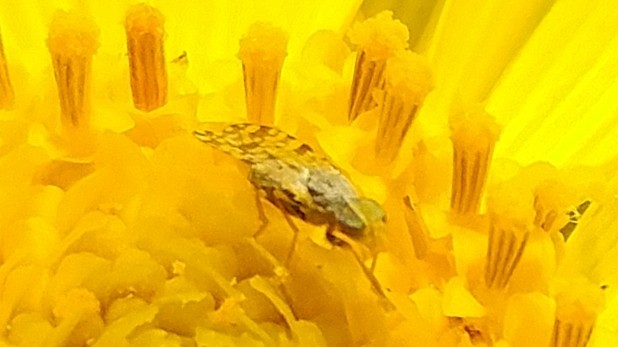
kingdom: Animalia
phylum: Arthropoda
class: Insecta
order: Diptera
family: Tephritidae
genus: Dioxyna
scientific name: Dioxyna picciola
